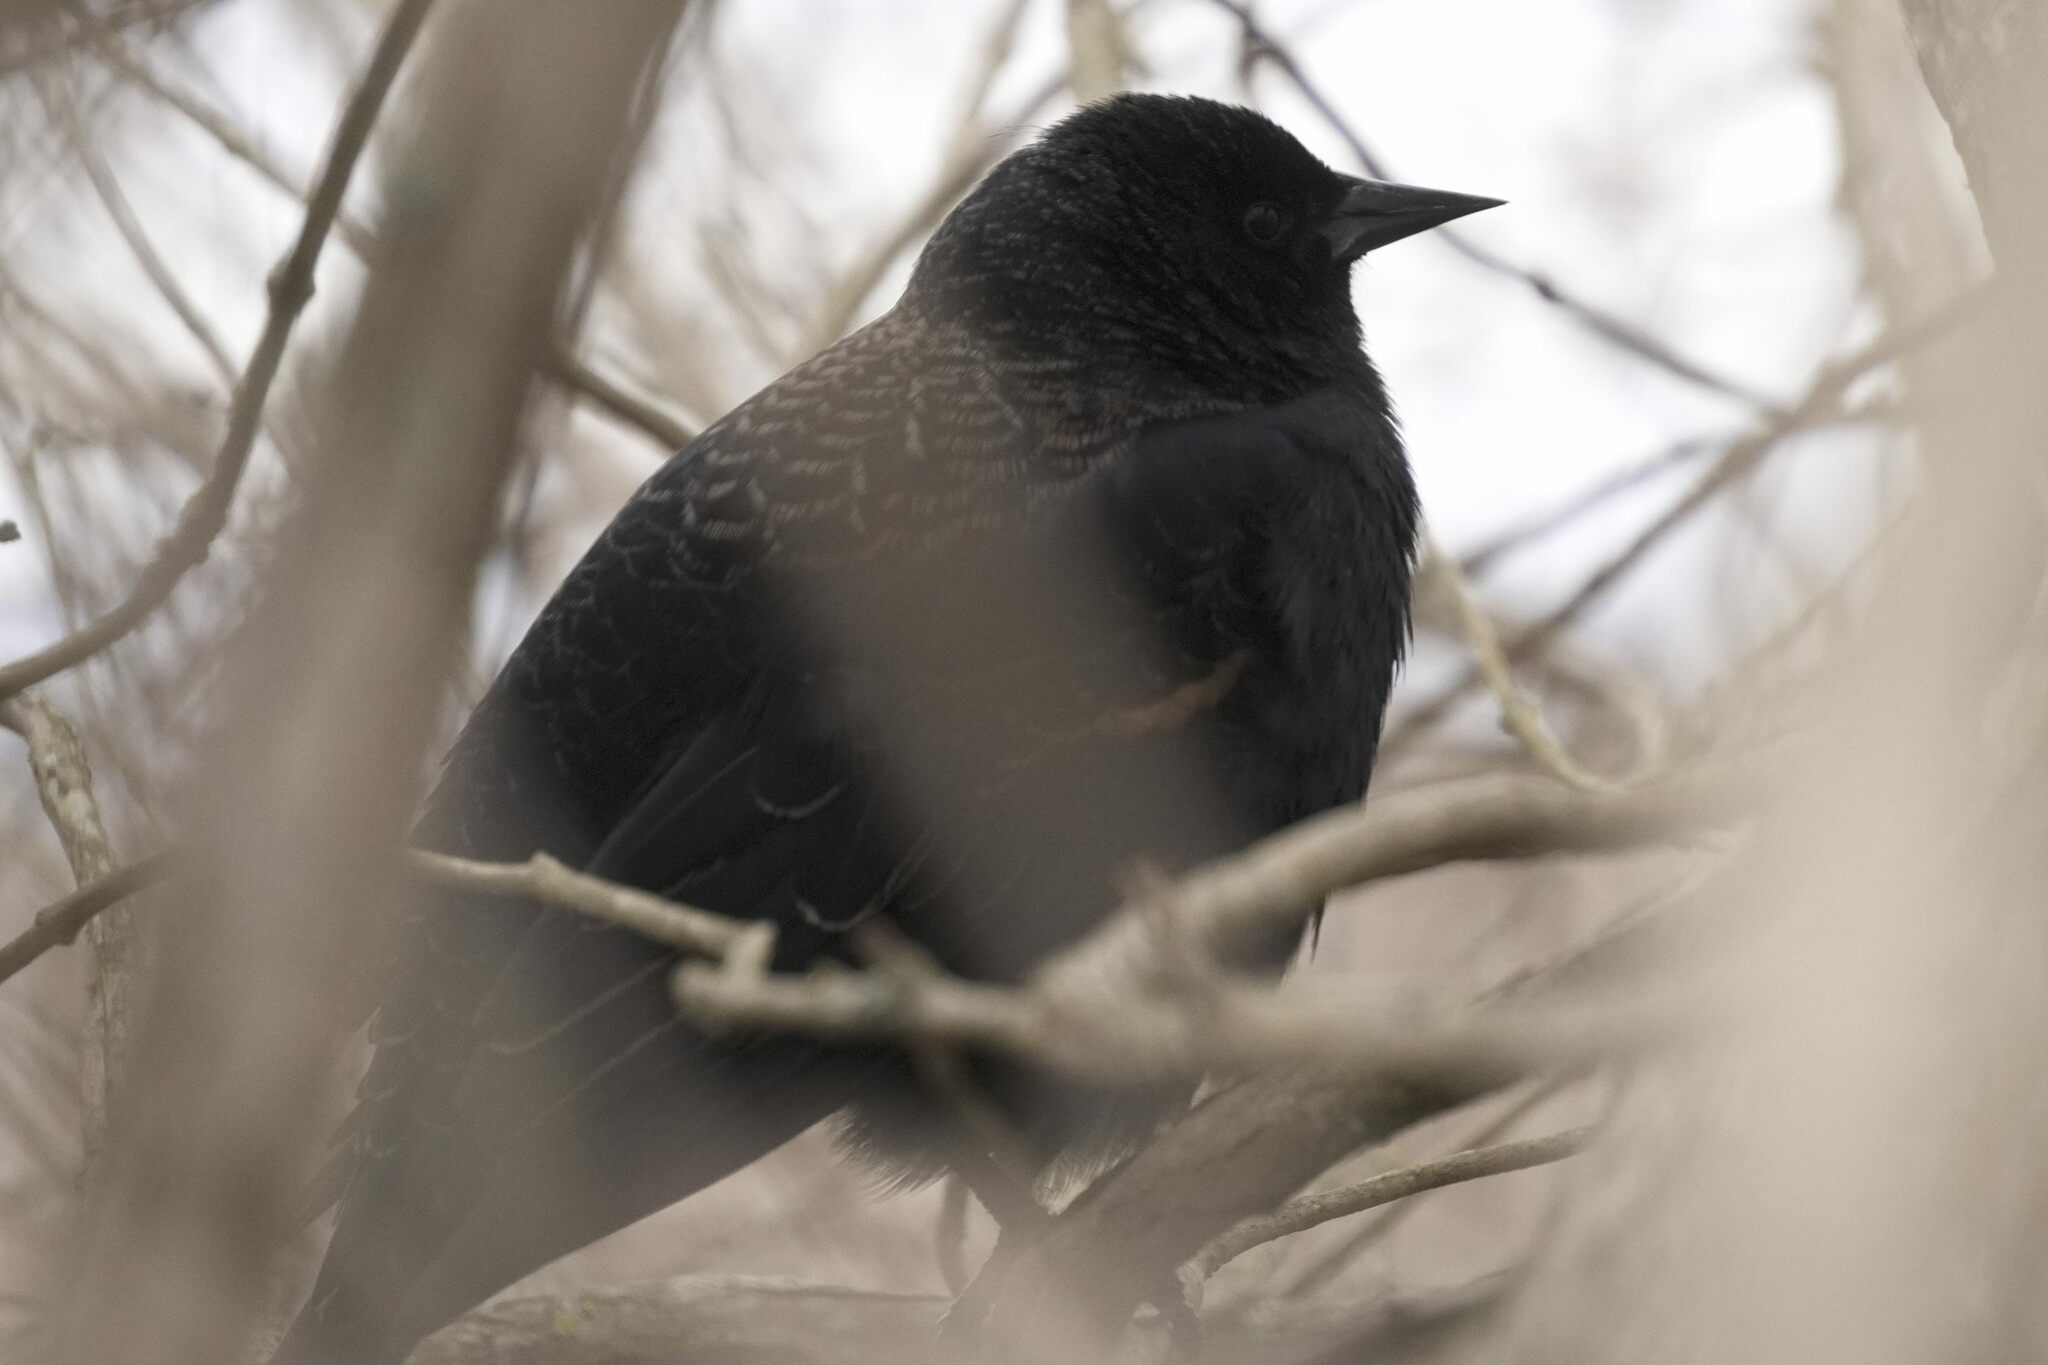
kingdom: Animalia
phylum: Chordata
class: Aves
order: Passeriformes
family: Icteridae
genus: Agelaius
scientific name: Agelaius phoeniceus
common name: Red-winged blackbird
